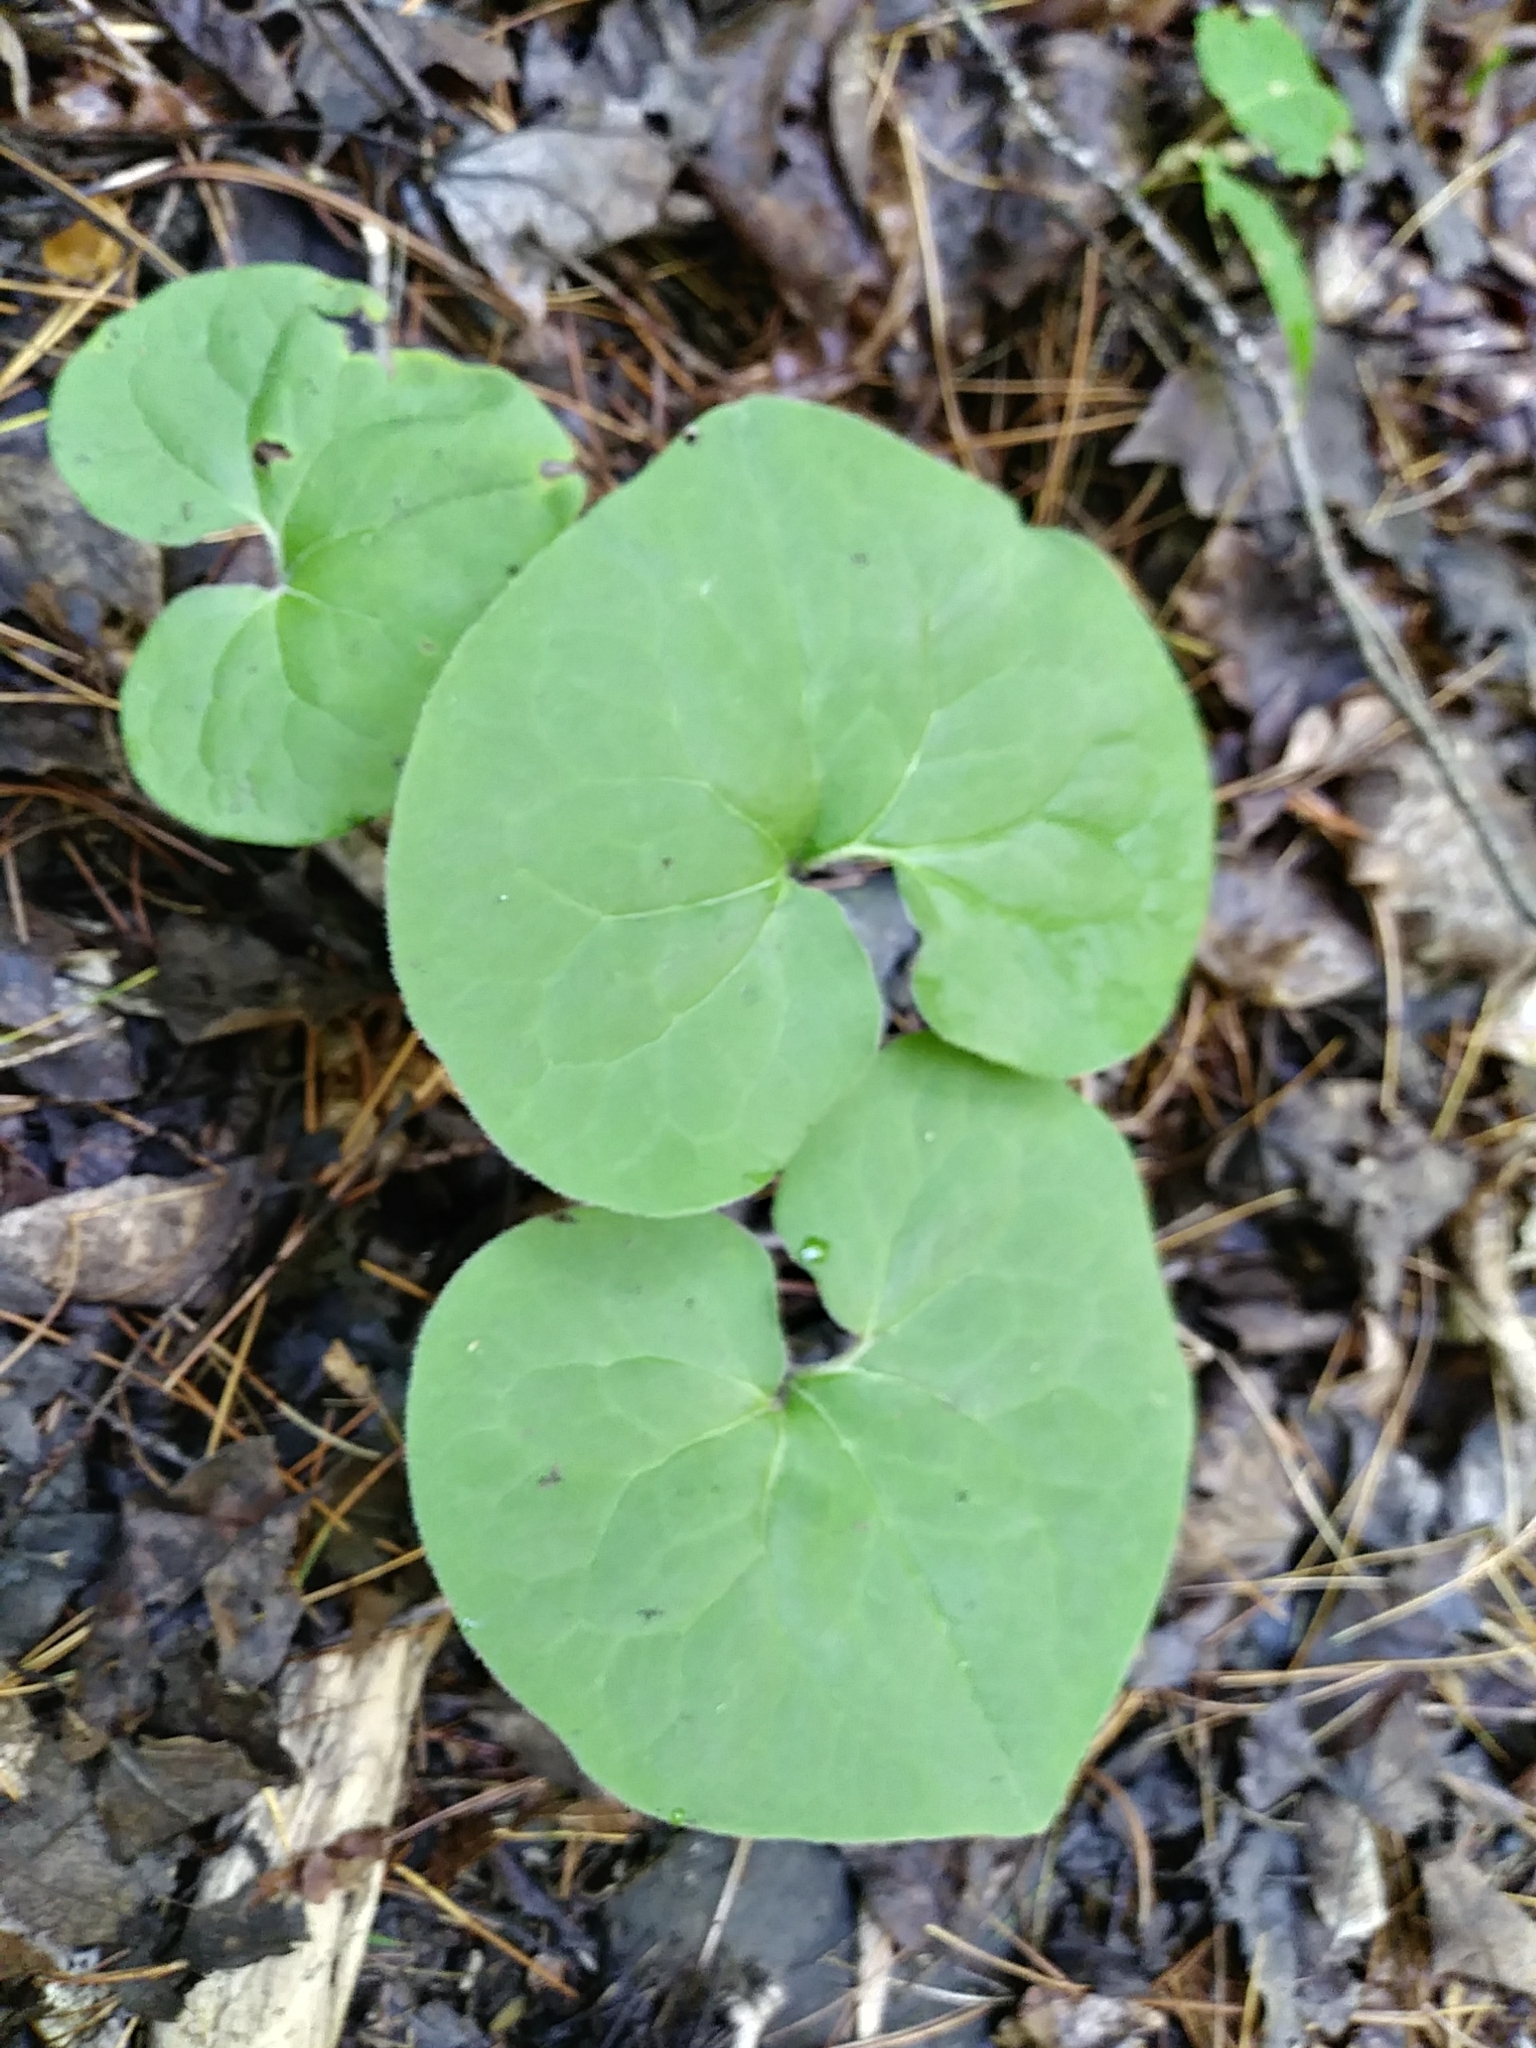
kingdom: Plantae
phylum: Tracheophyta
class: Magnoliopsida
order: Piperales
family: Aristolochiaceae
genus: Asarum
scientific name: Asarum canadense
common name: Wild ginger
